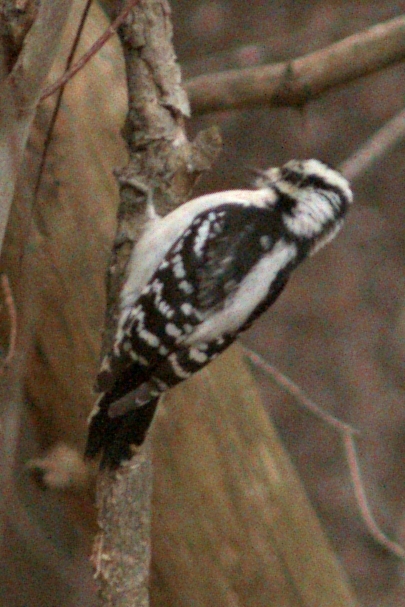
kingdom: Animalia
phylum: Chordata
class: Aves
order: Piciformes
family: Picidae
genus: Dryobates
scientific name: Dryobates pubescens
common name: Downy woodpecker
